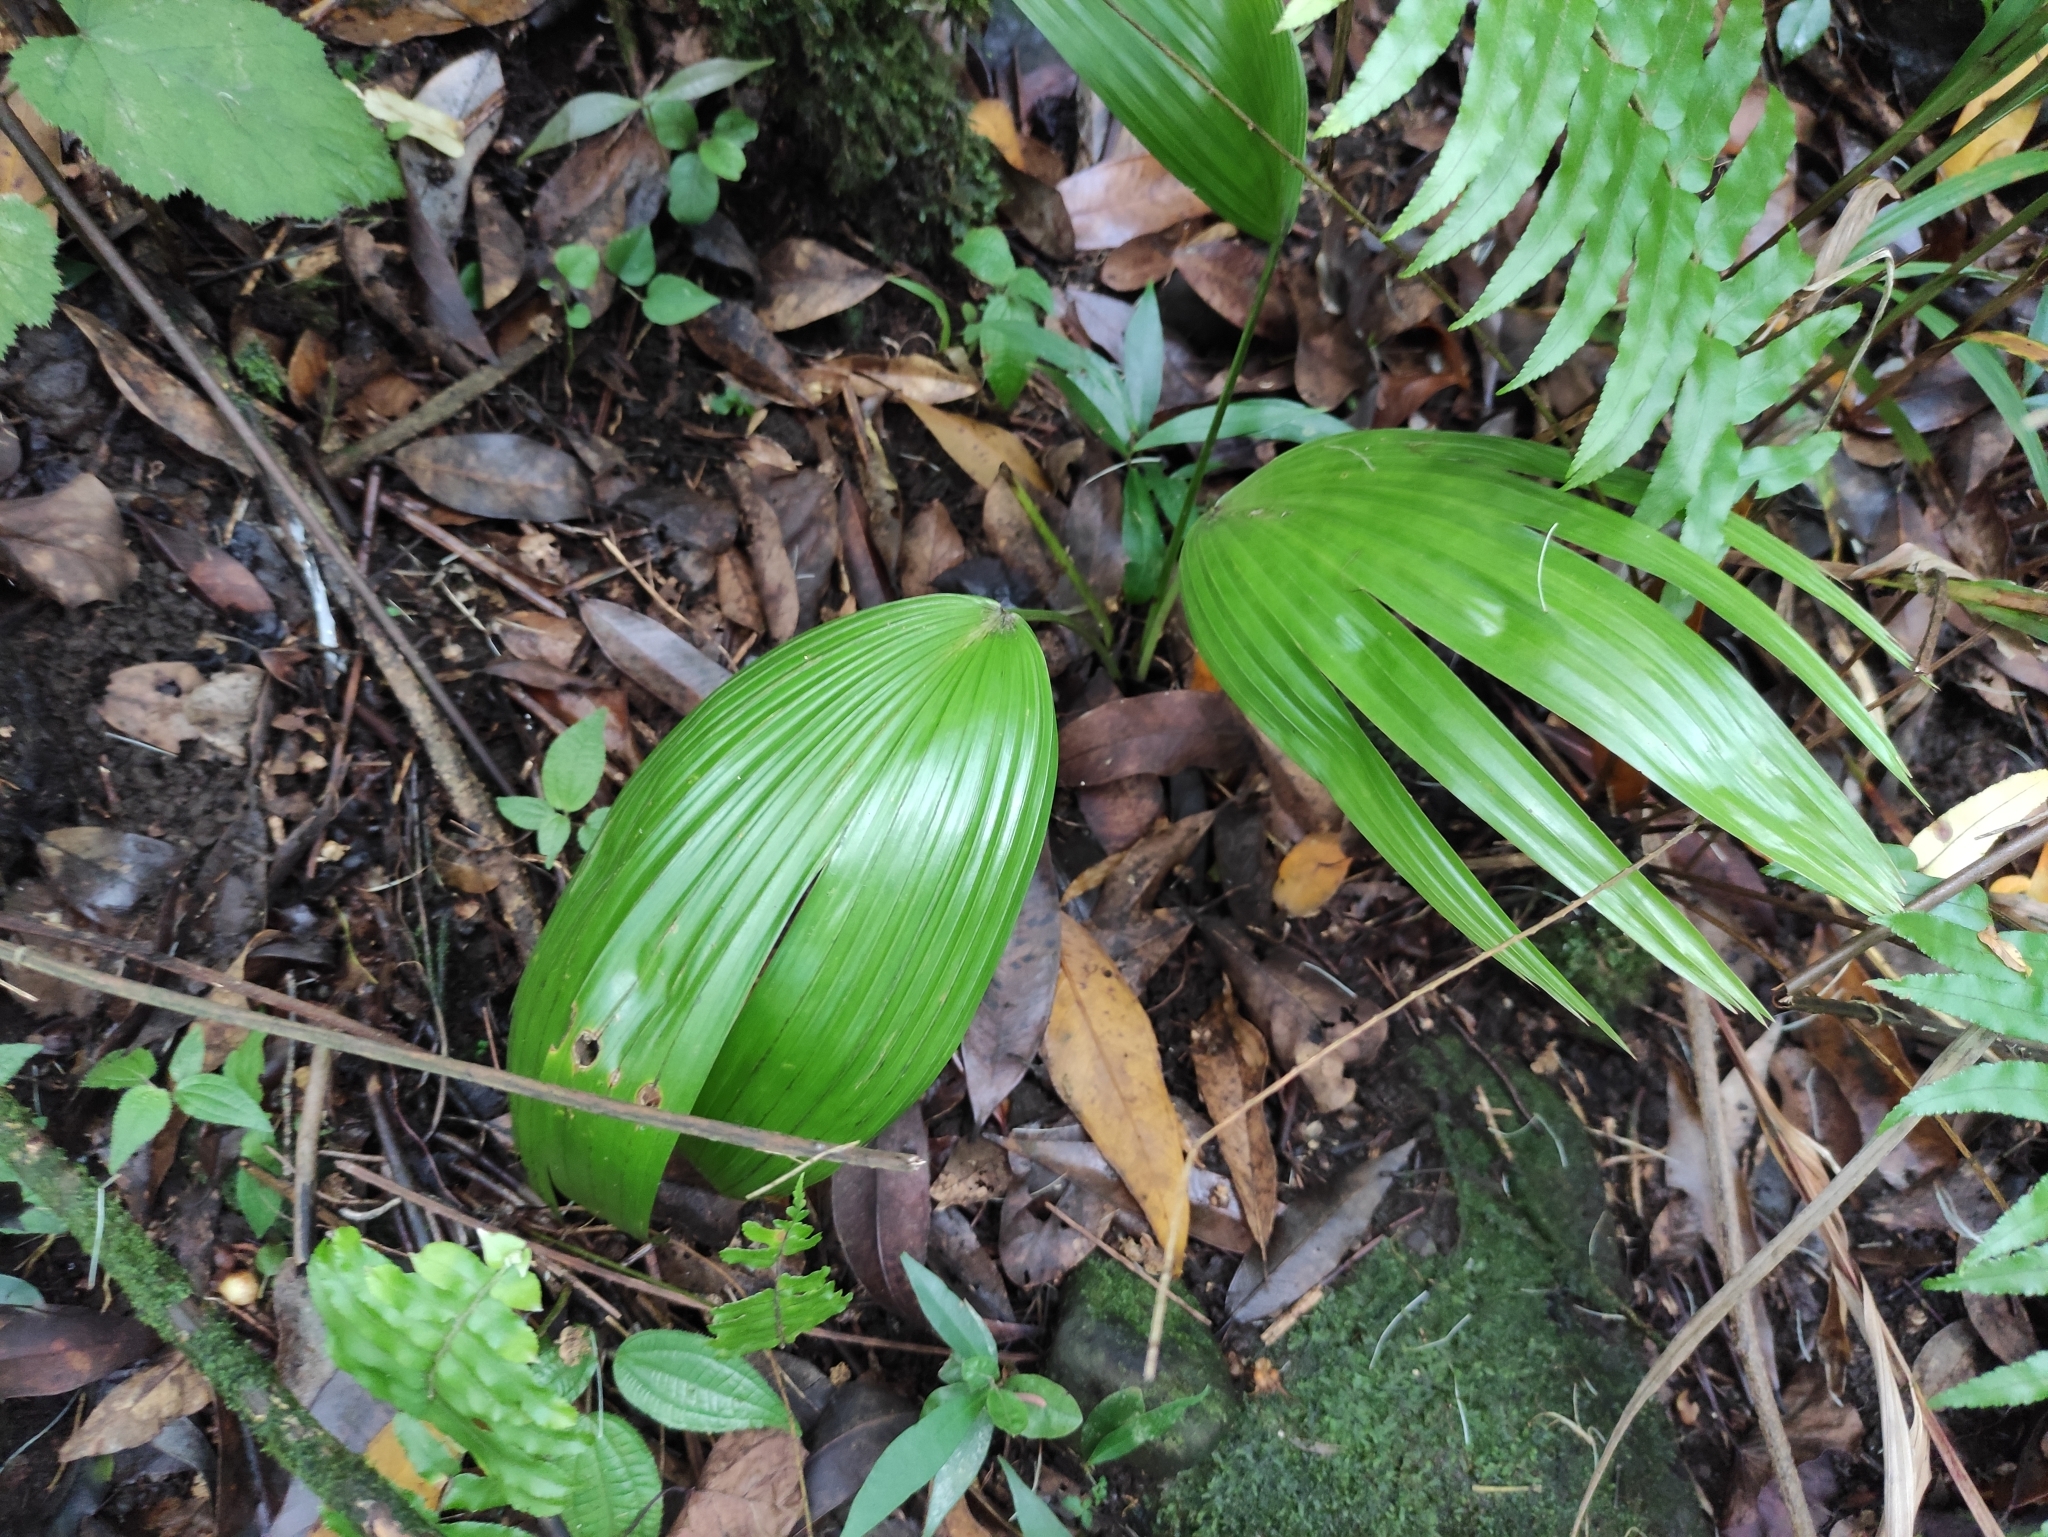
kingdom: Plantae
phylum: Tracheophyta
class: Liliopsida
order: Arecales
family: Arecaceae
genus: Livistona
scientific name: Livistona chinensis
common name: Fountain palm
